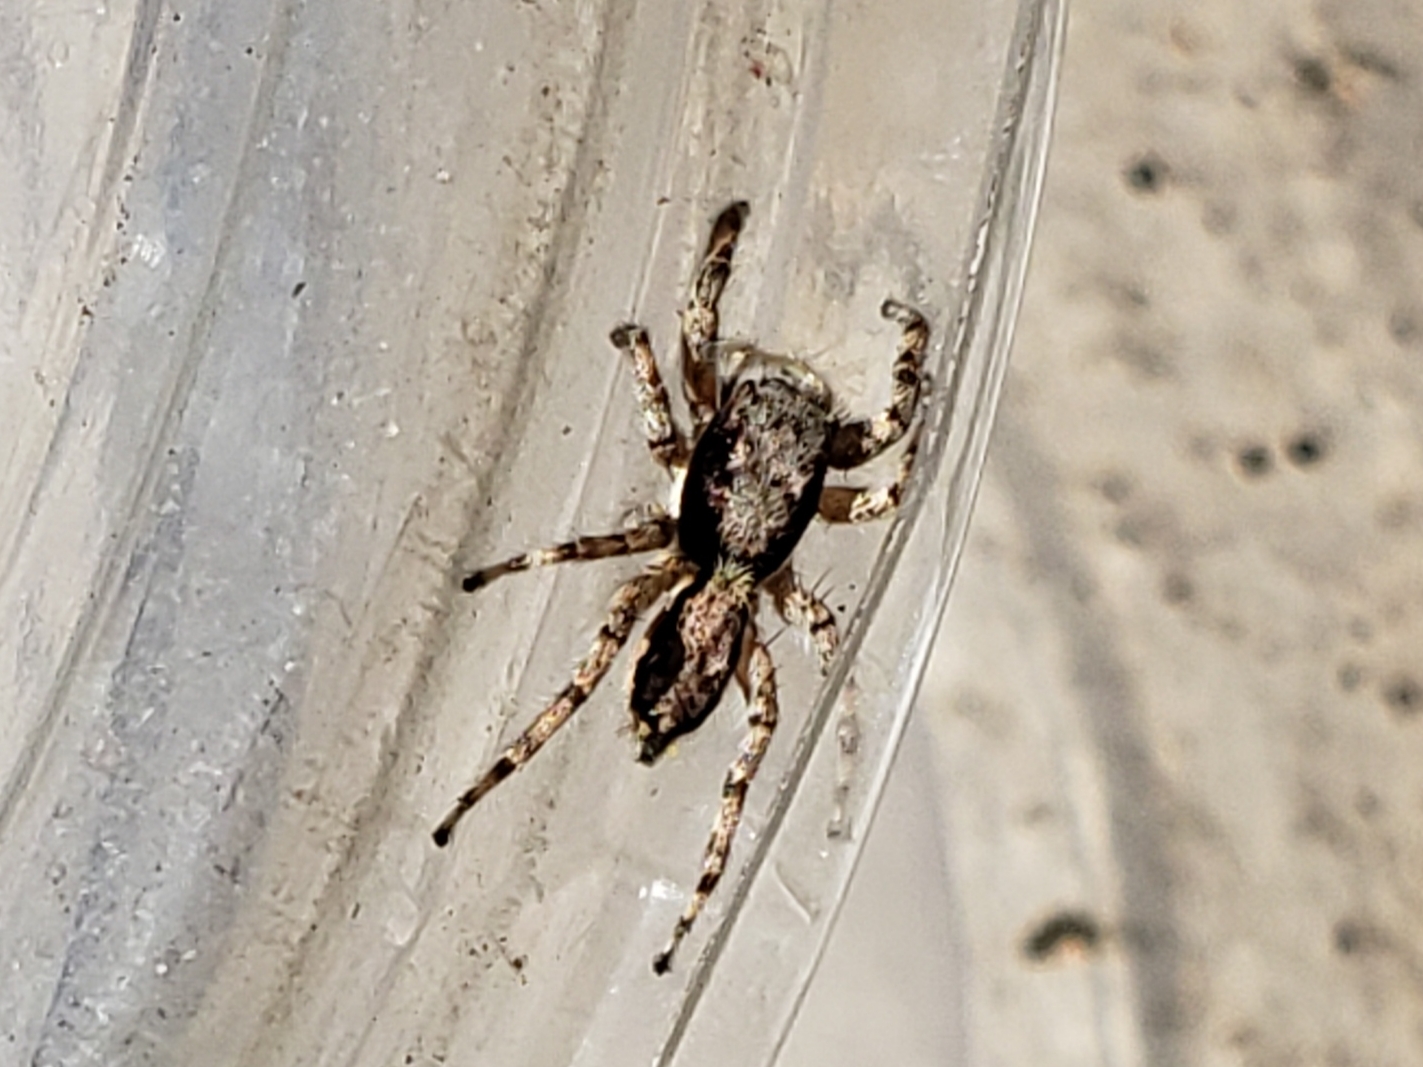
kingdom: Animalia
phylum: Arthropoda
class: Arachnida
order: Araneae
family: Salticidae
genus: Menemerus
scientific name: Menemerus bivittatus
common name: Gray wall jumper
